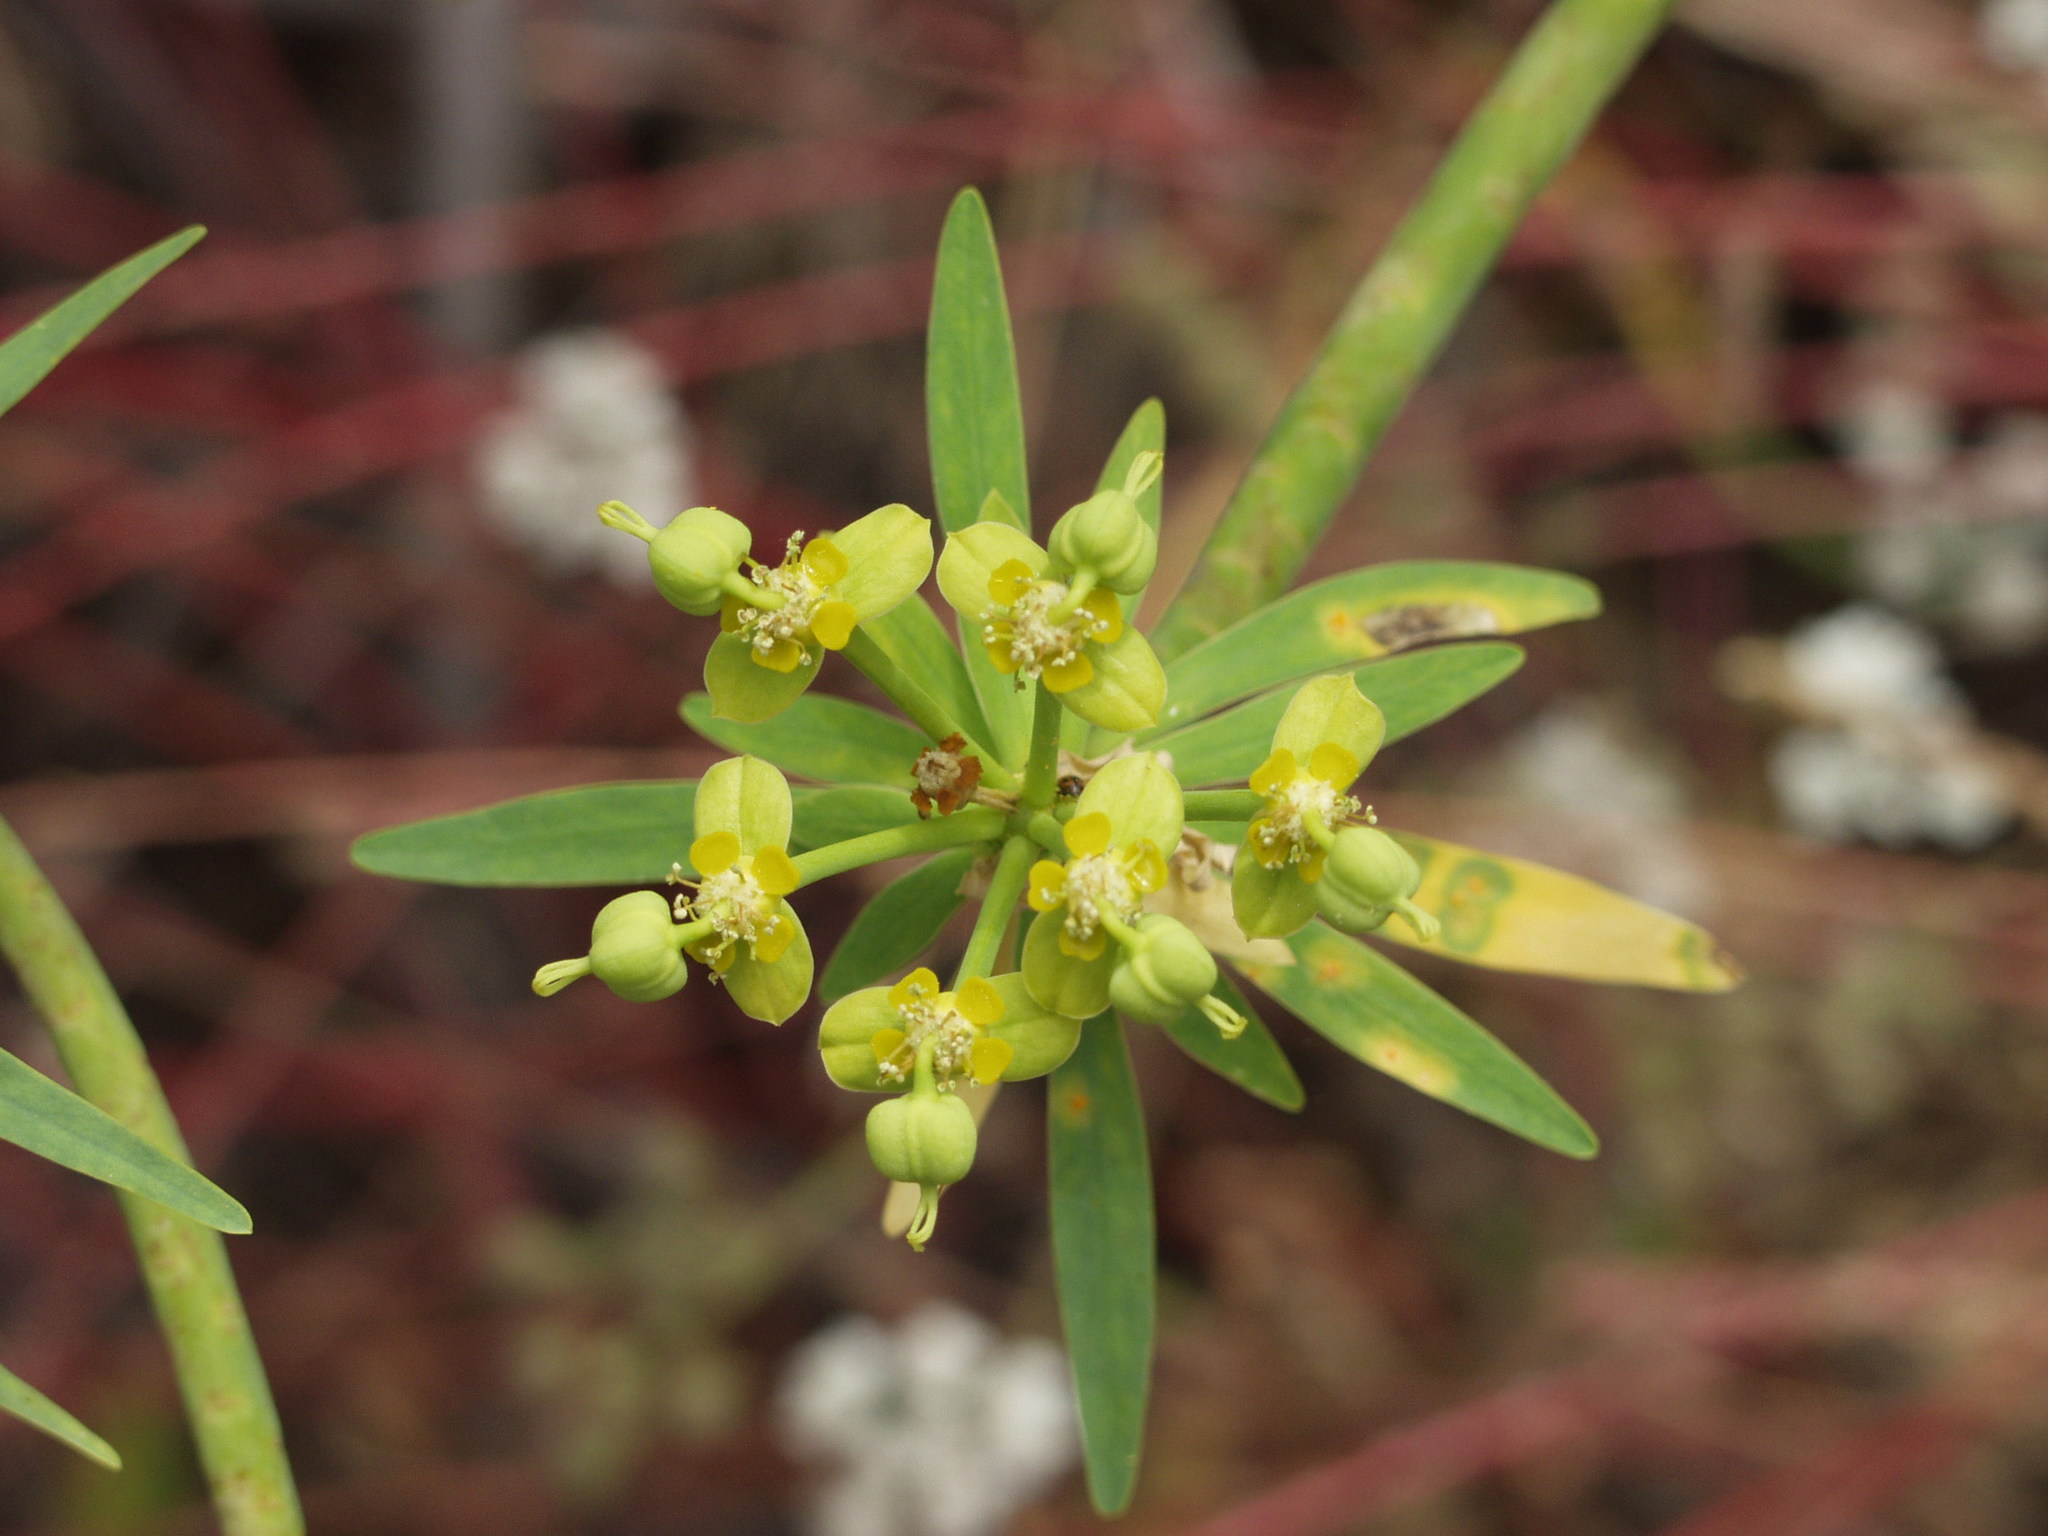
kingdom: Plantae
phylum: Tracheophyta
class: Magnoliopsida
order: Malpighiales
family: Euphorbiaceae
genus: Euphorbia
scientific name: Euphorbia lamarckii
